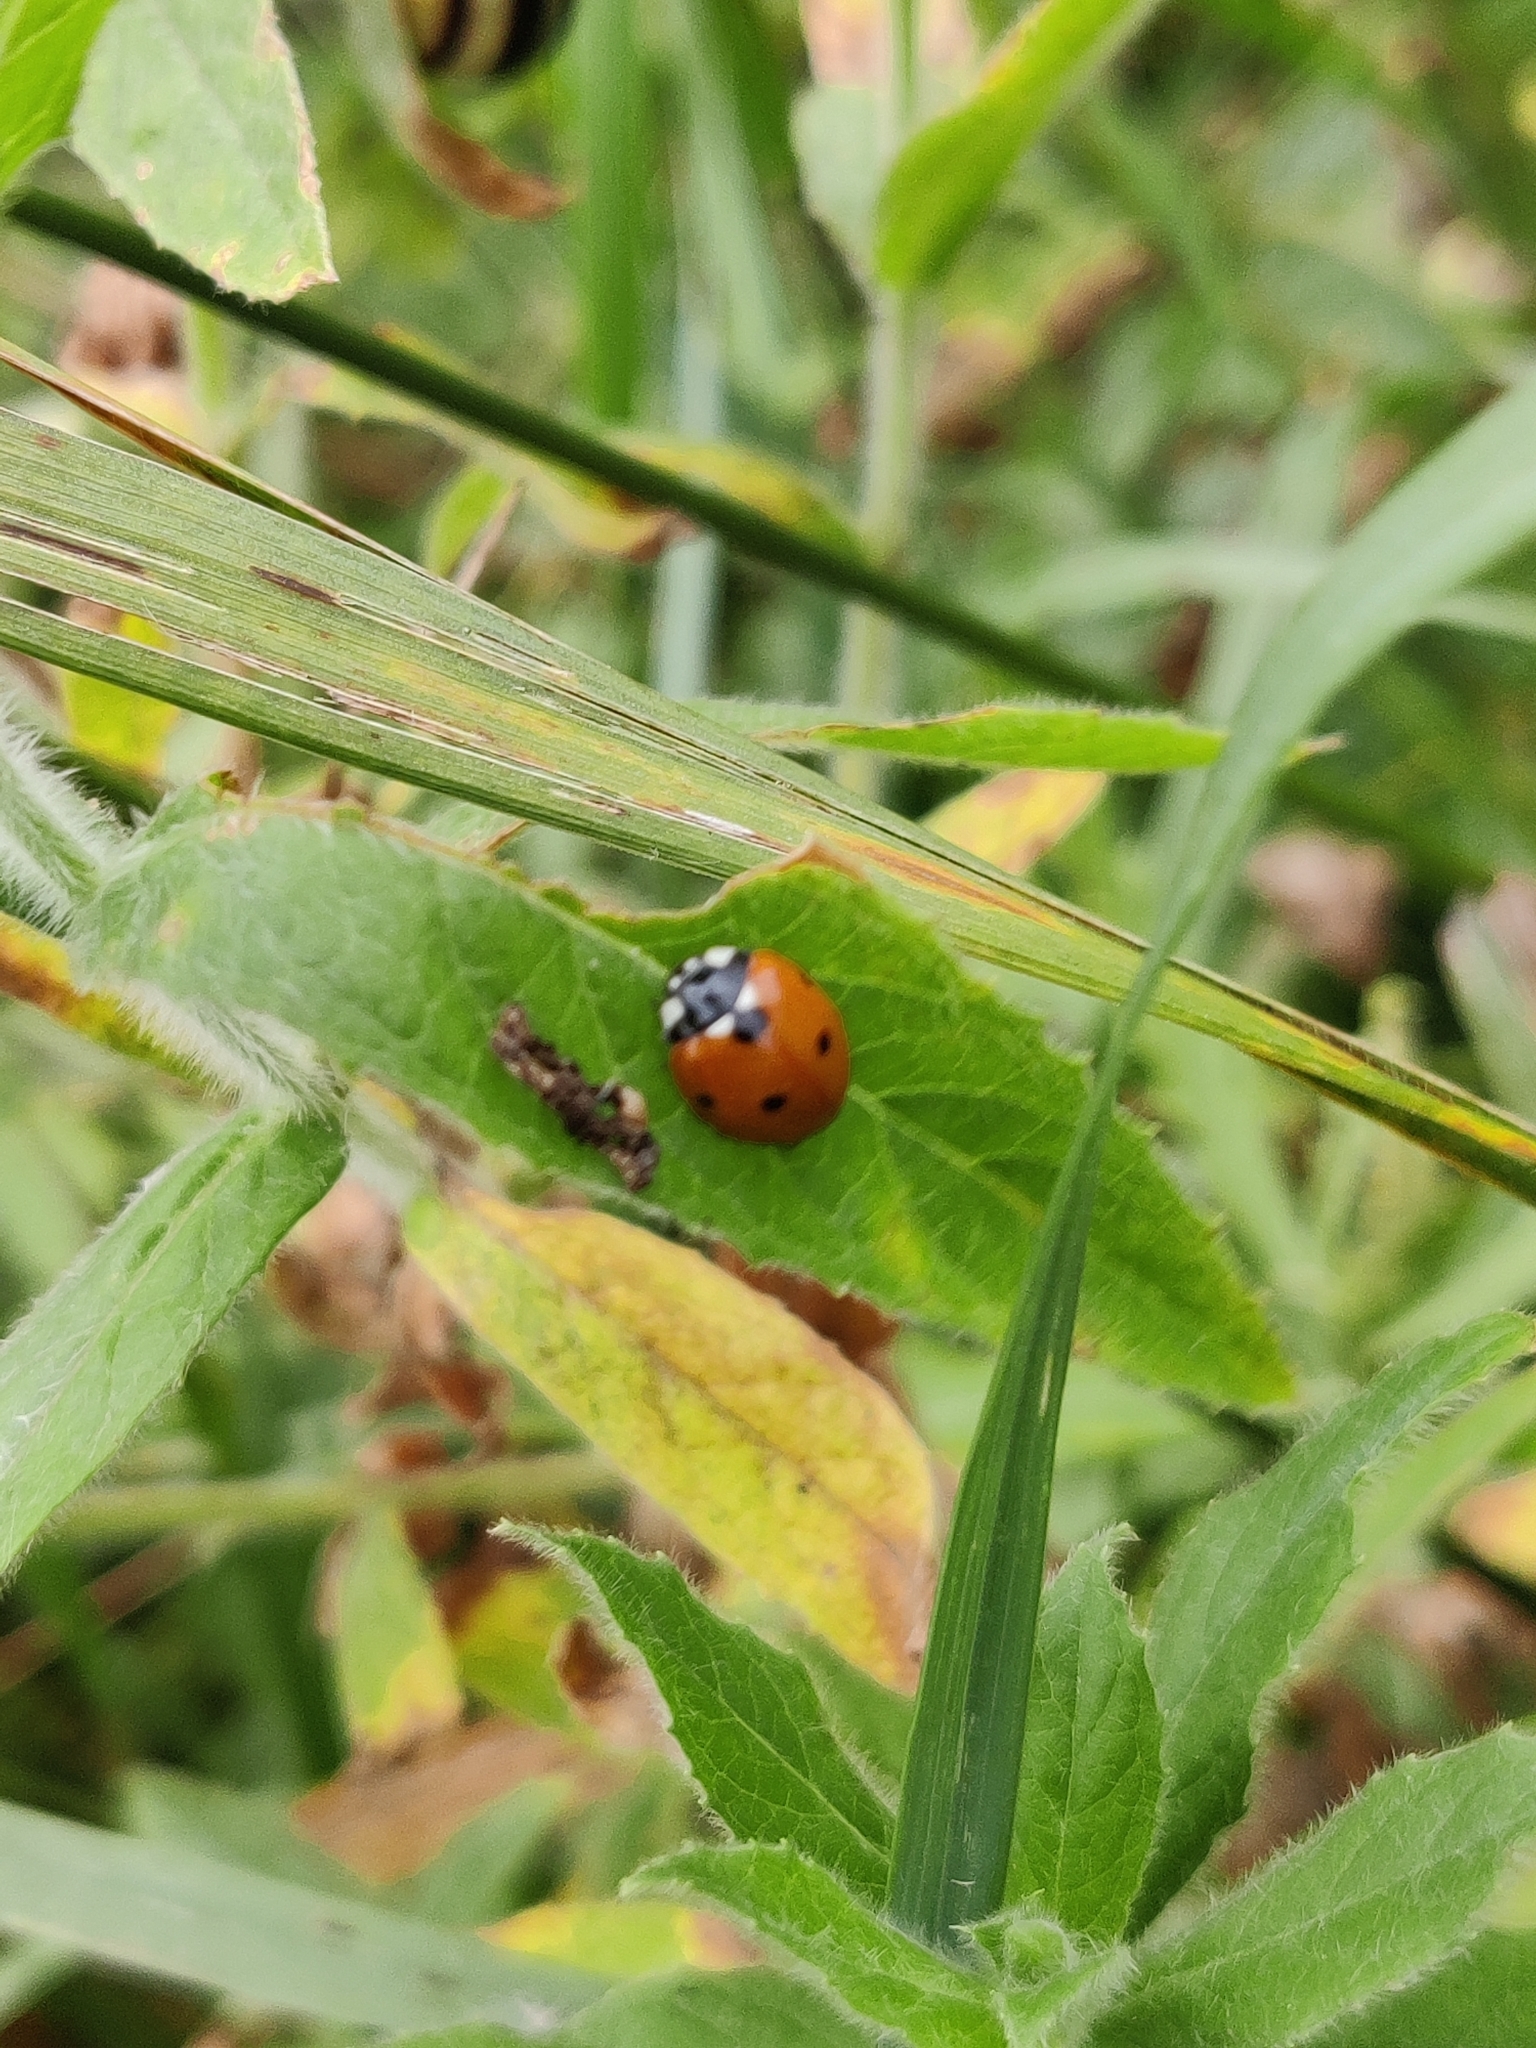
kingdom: Animalia
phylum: Arthropoda
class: Insecta
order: Coleoptera
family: Coccinellidae
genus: Coccinella
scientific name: Coccinella septempunctata
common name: Sevenspotted lady beetle
